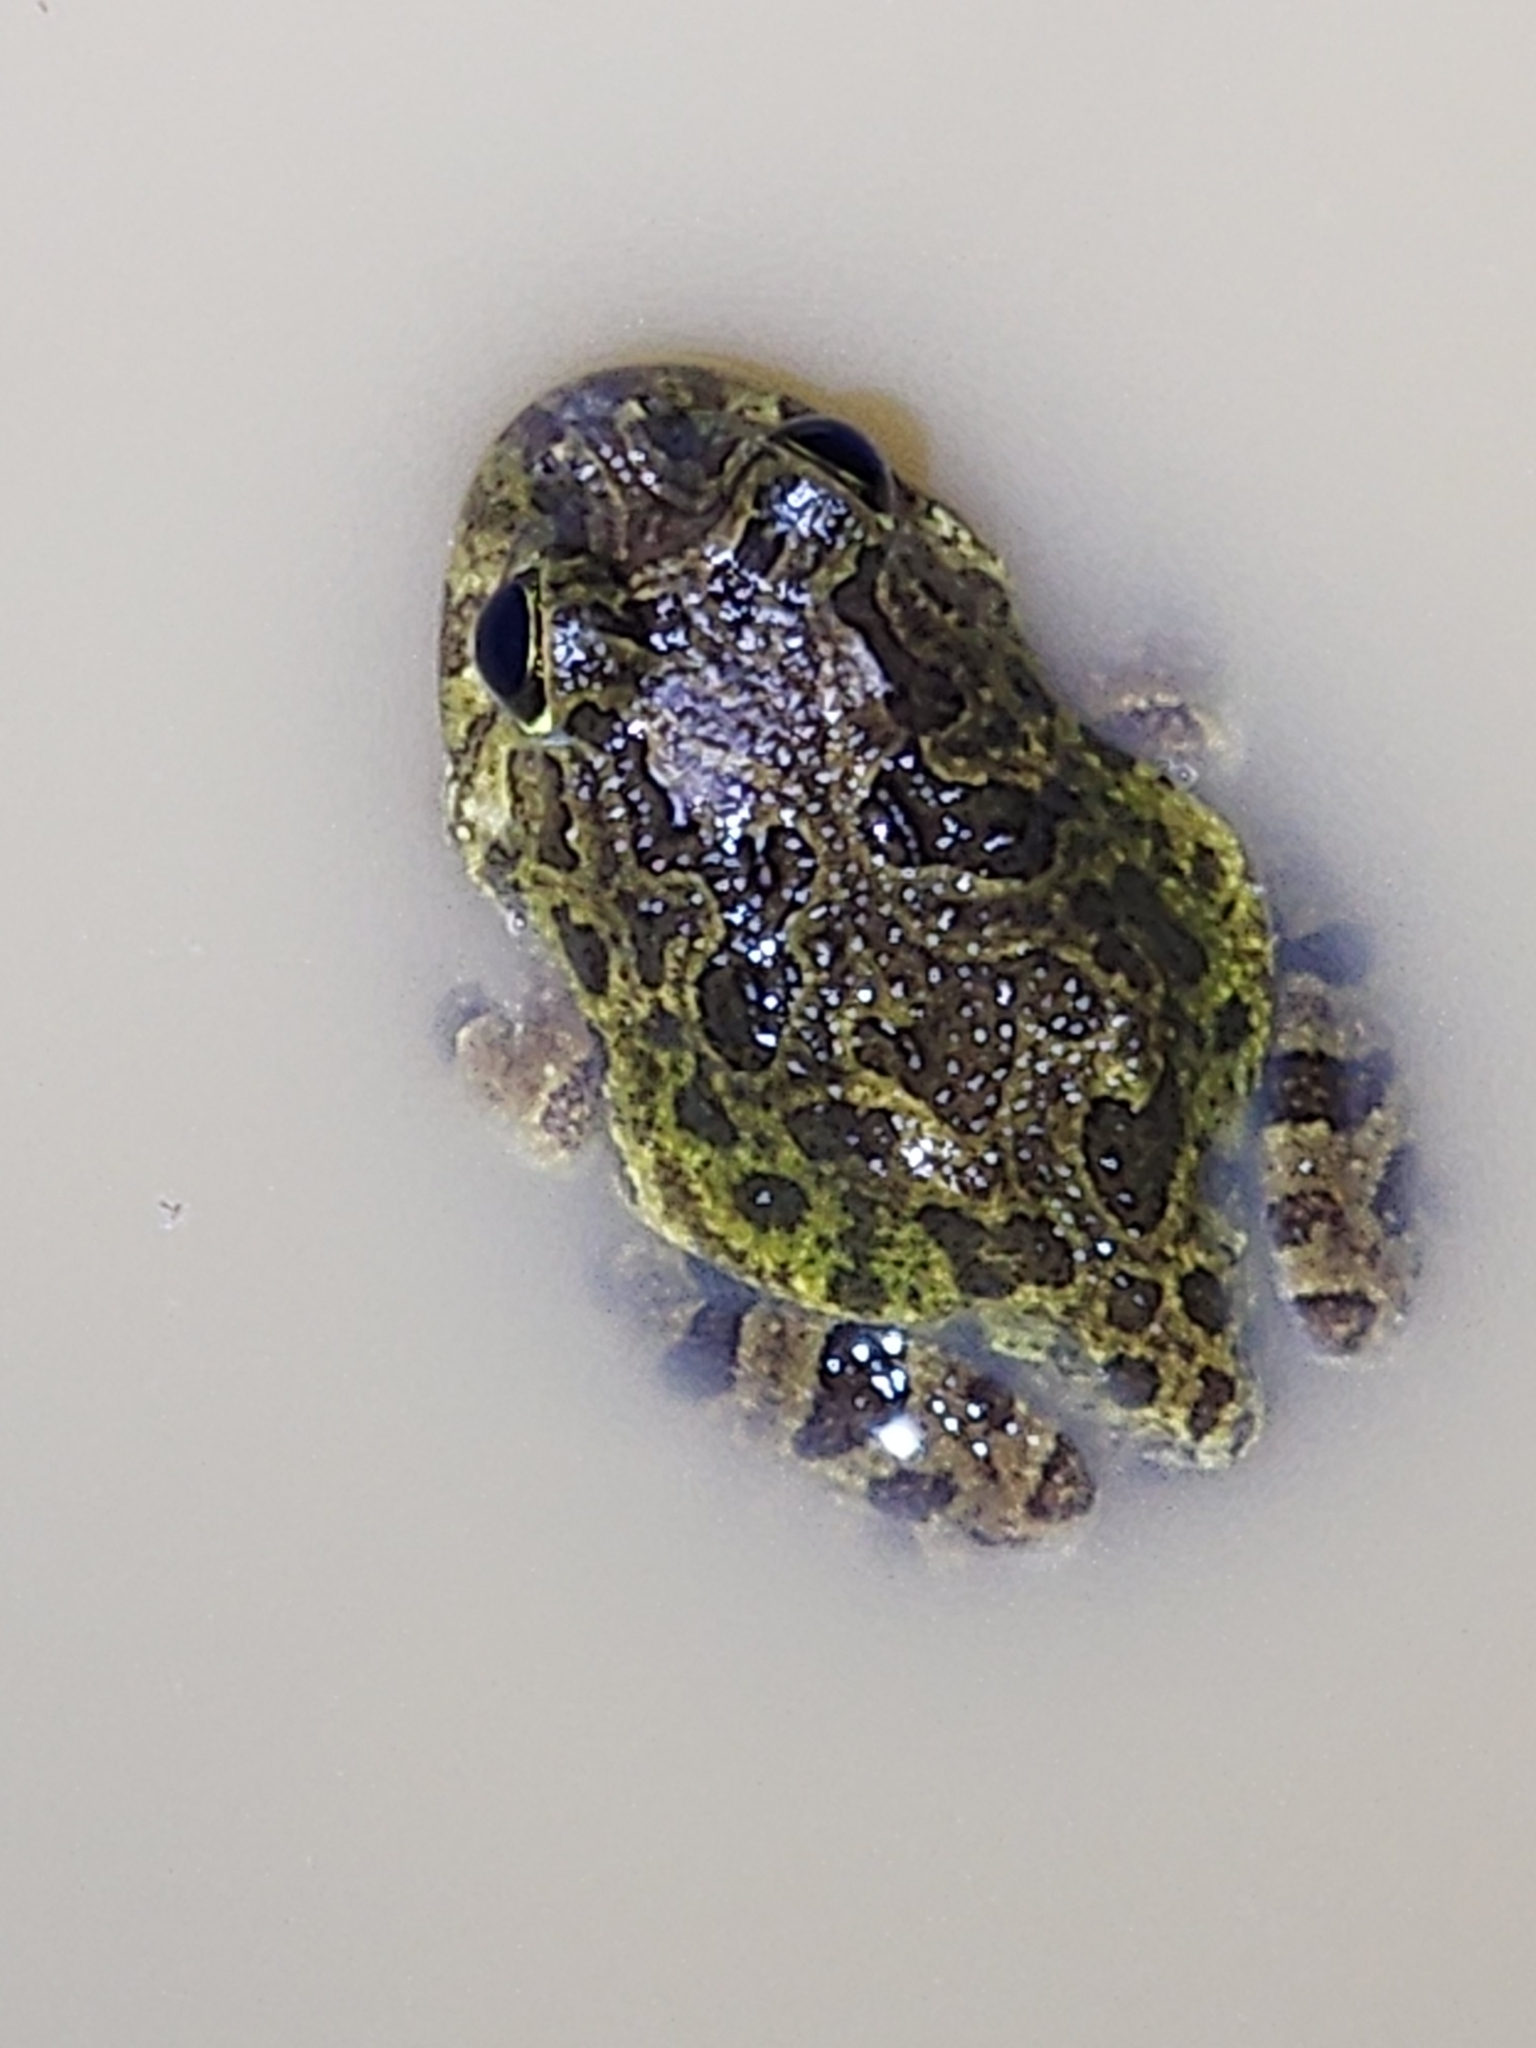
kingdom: Animalia
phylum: Chordata
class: Amphibia
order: Anura
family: Limnodynastidae
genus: Platyplectrum
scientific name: Platyplectrum ornatum
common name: Ornate burrowing frog
